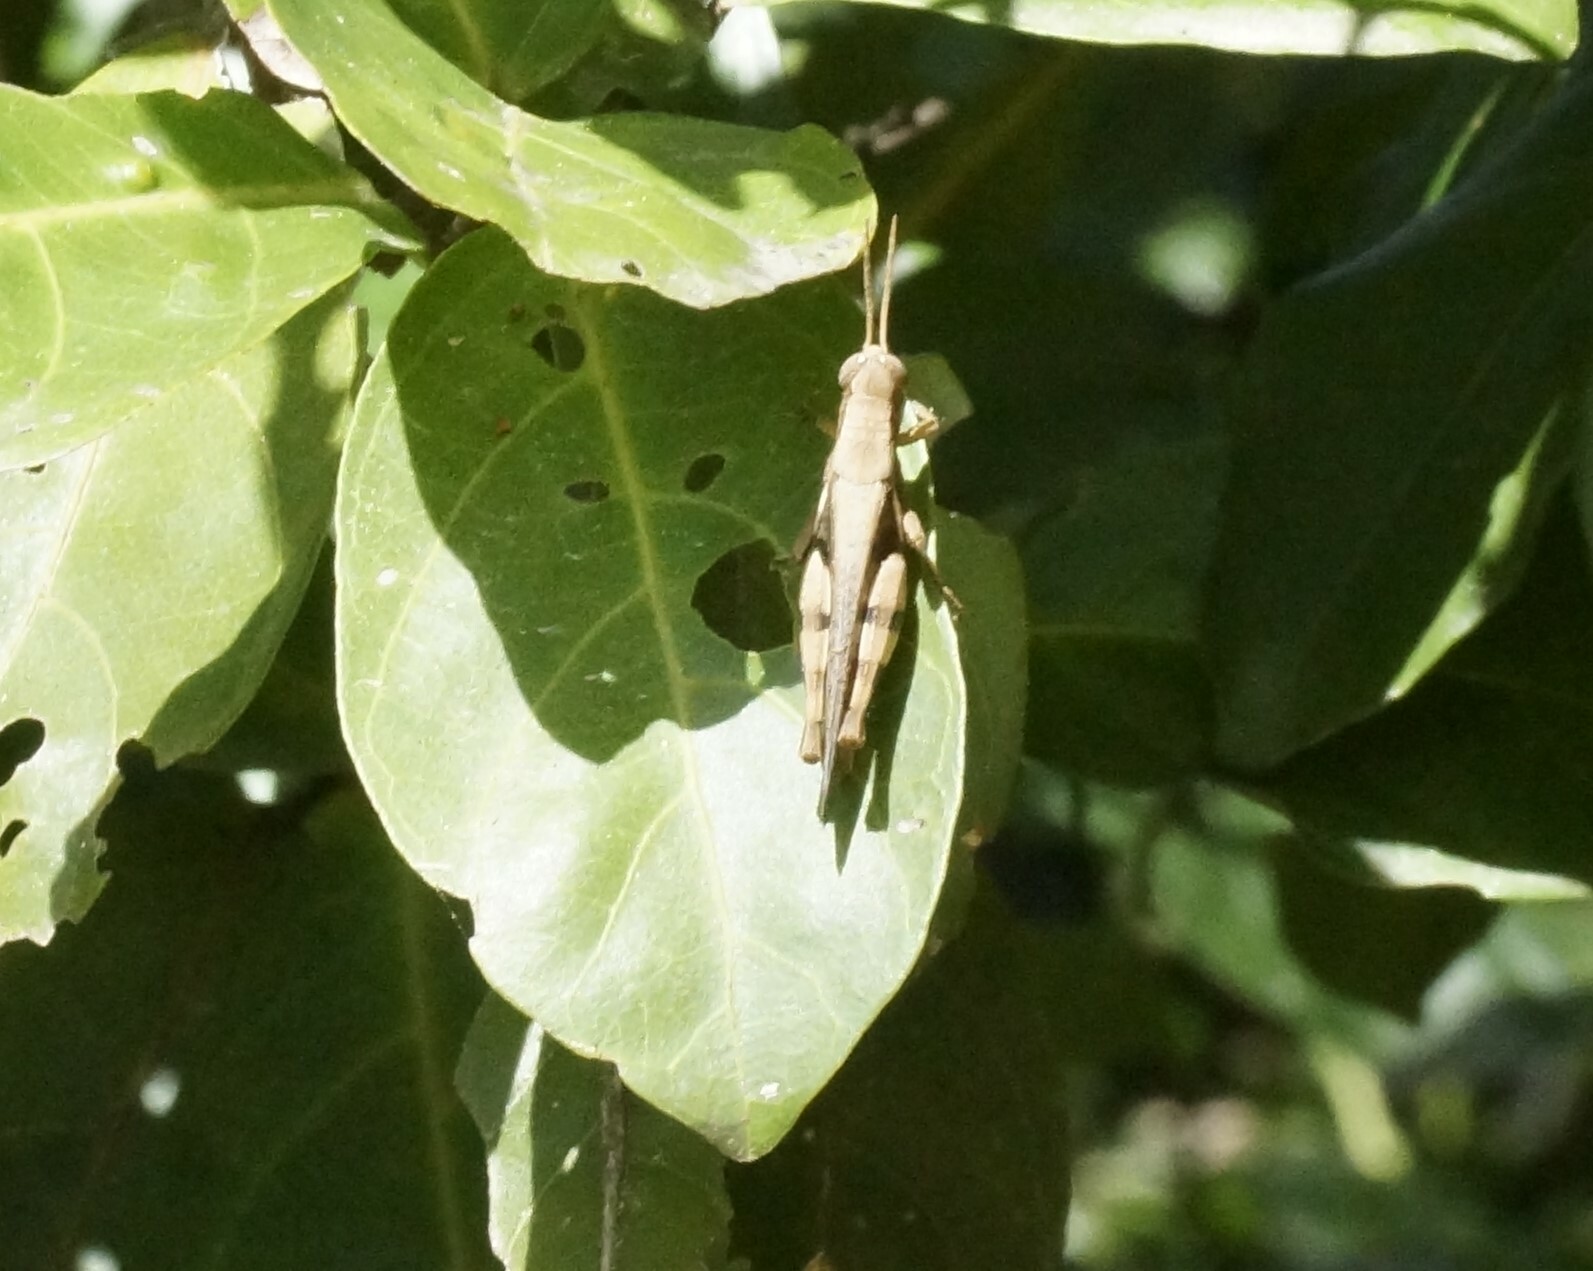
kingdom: Animalia
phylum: Arthropoda
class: Insecta
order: Orthoptera
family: Acrididae
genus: Stenocatantops
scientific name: Stenocatantops angustifrons
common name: Common tropical sharptail
